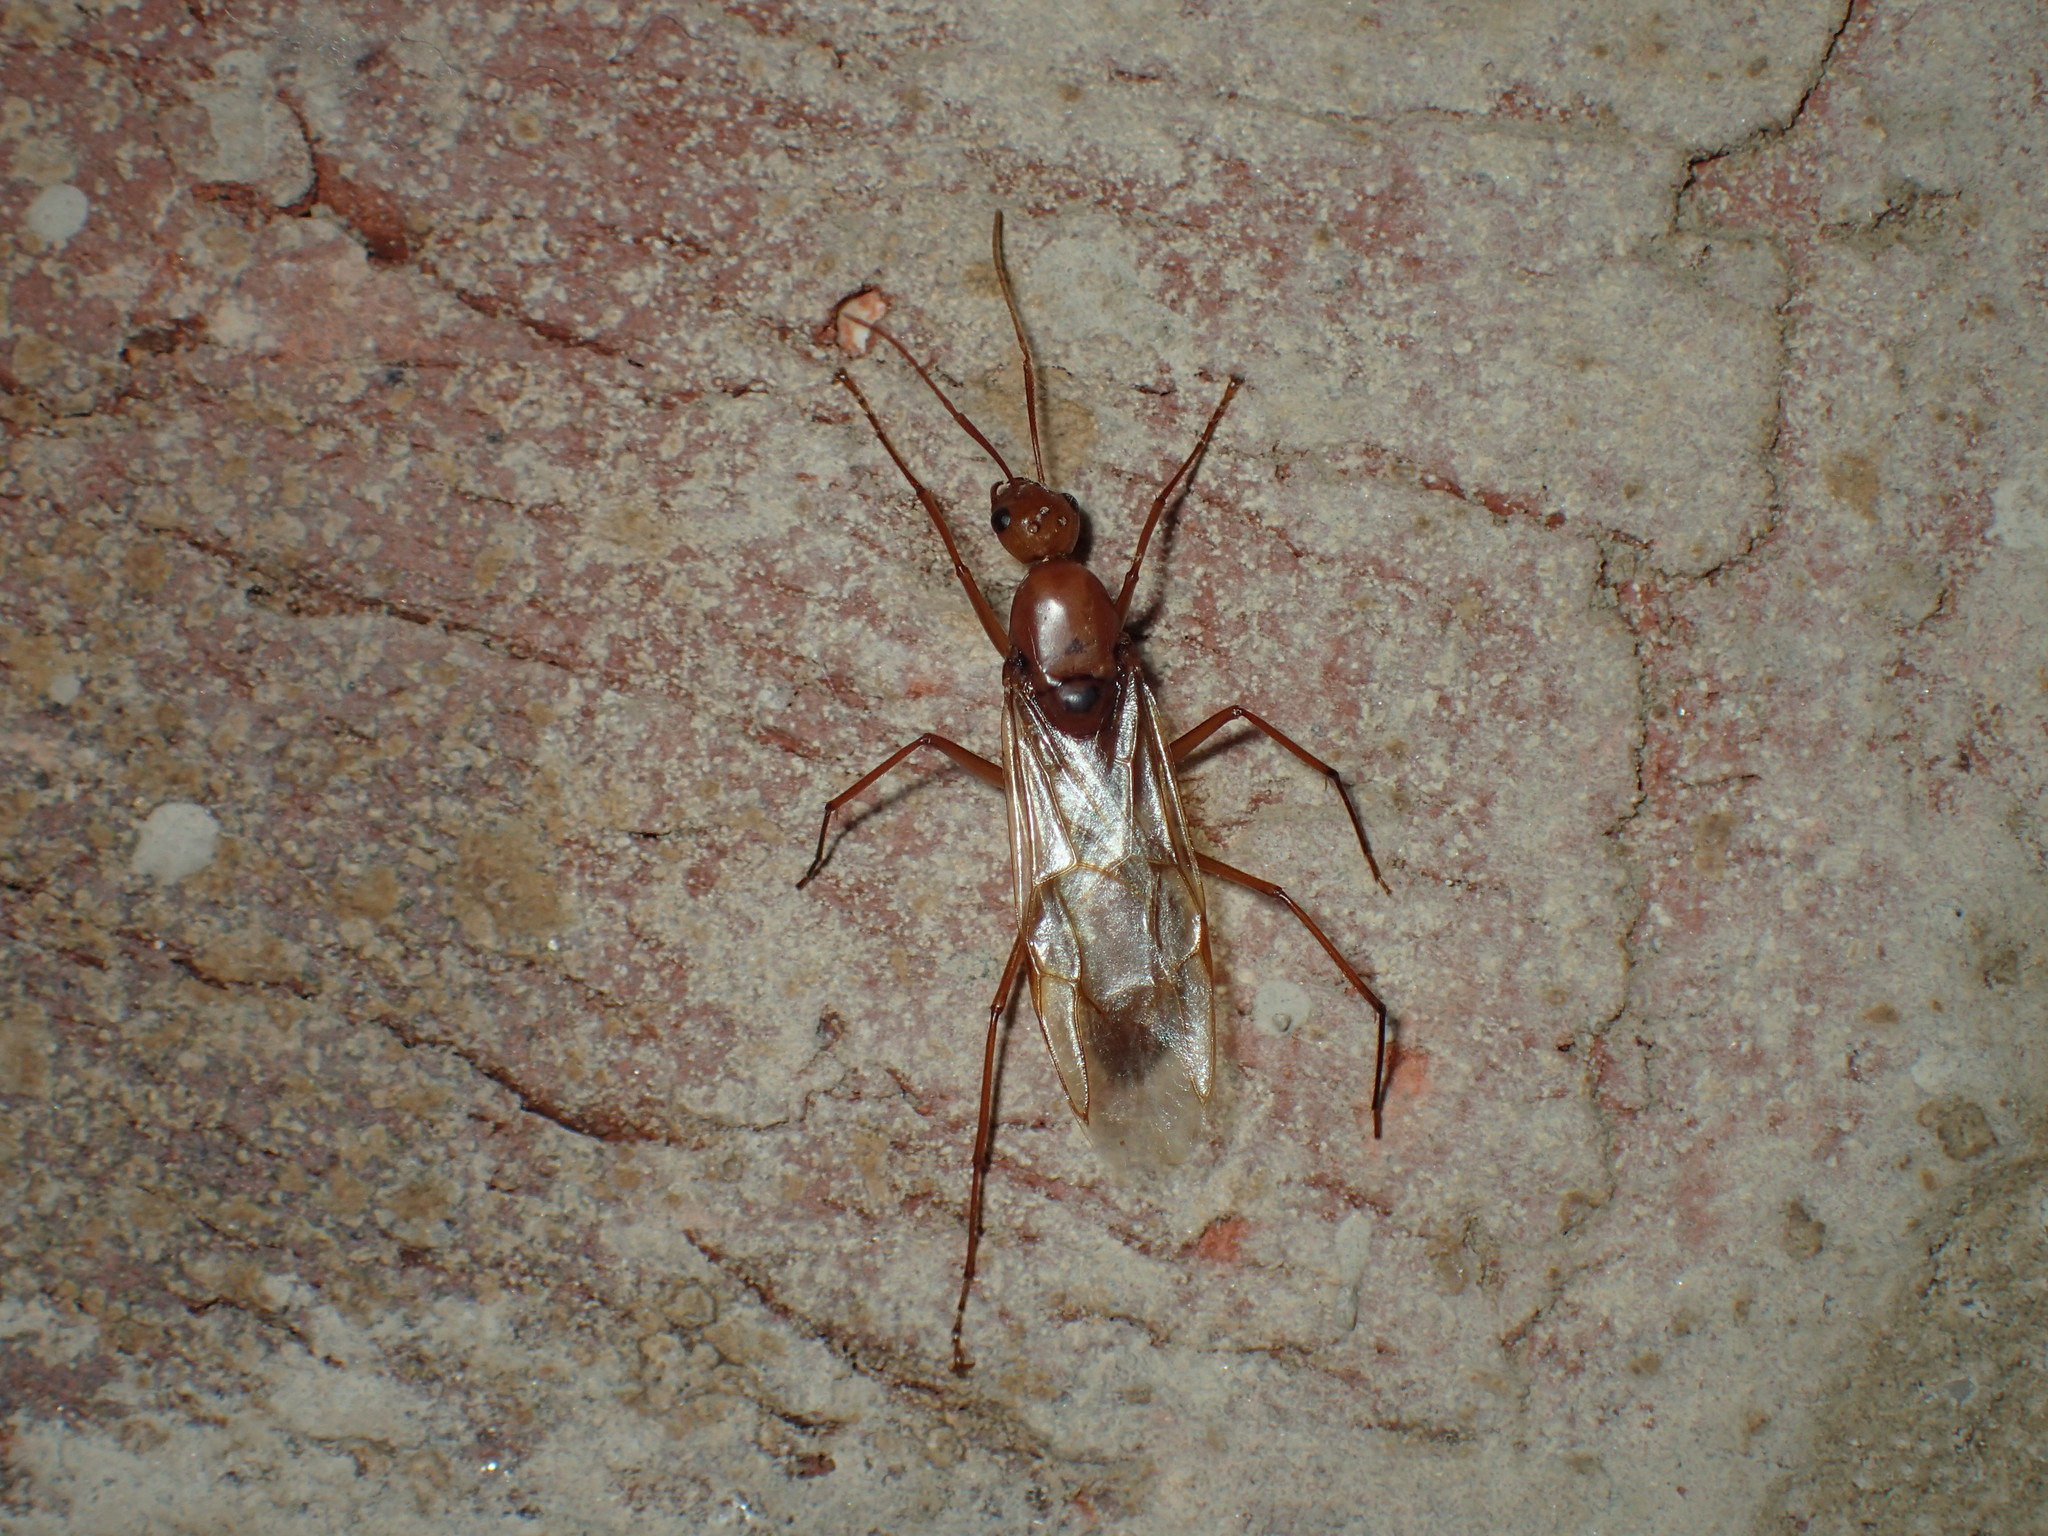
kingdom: Animalia
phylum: Arthropoda
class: Insecta
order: Hymenoptera
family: Formicidae
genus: Camponotus
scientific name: Camponotus castaneus
